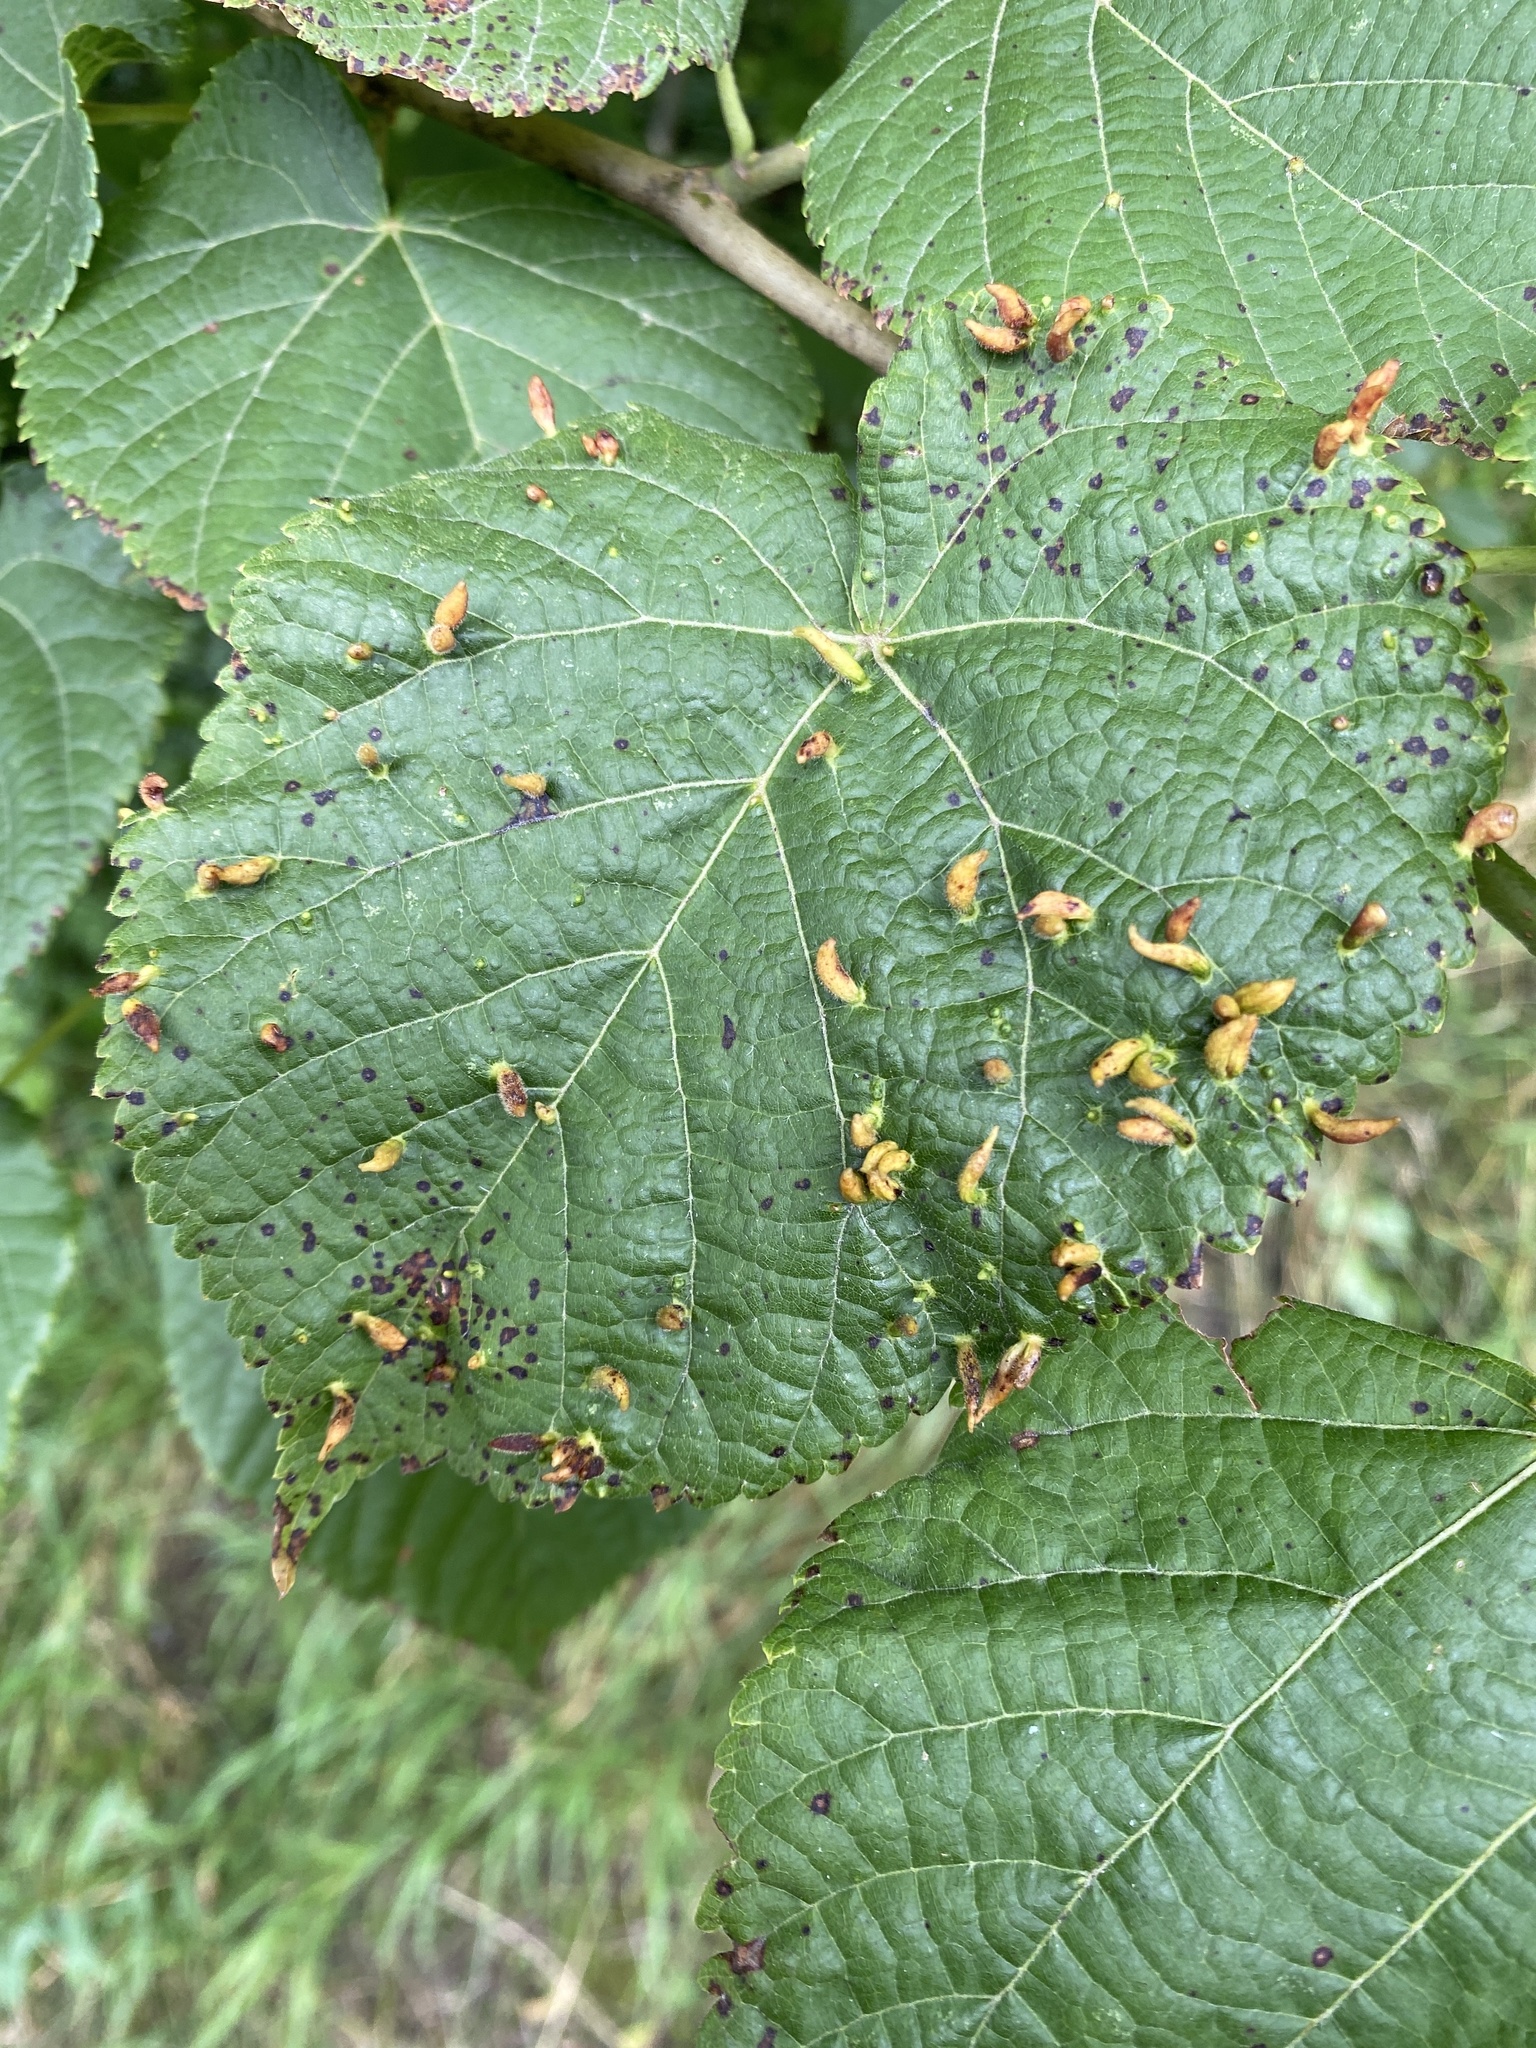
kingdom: Animalia
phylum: Arthropoda
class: Arachnida
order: Trombidiformes
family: Eriophyidae
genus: Eriophyes
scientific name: Eriophyes tiliae
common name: Red nail gall mite
